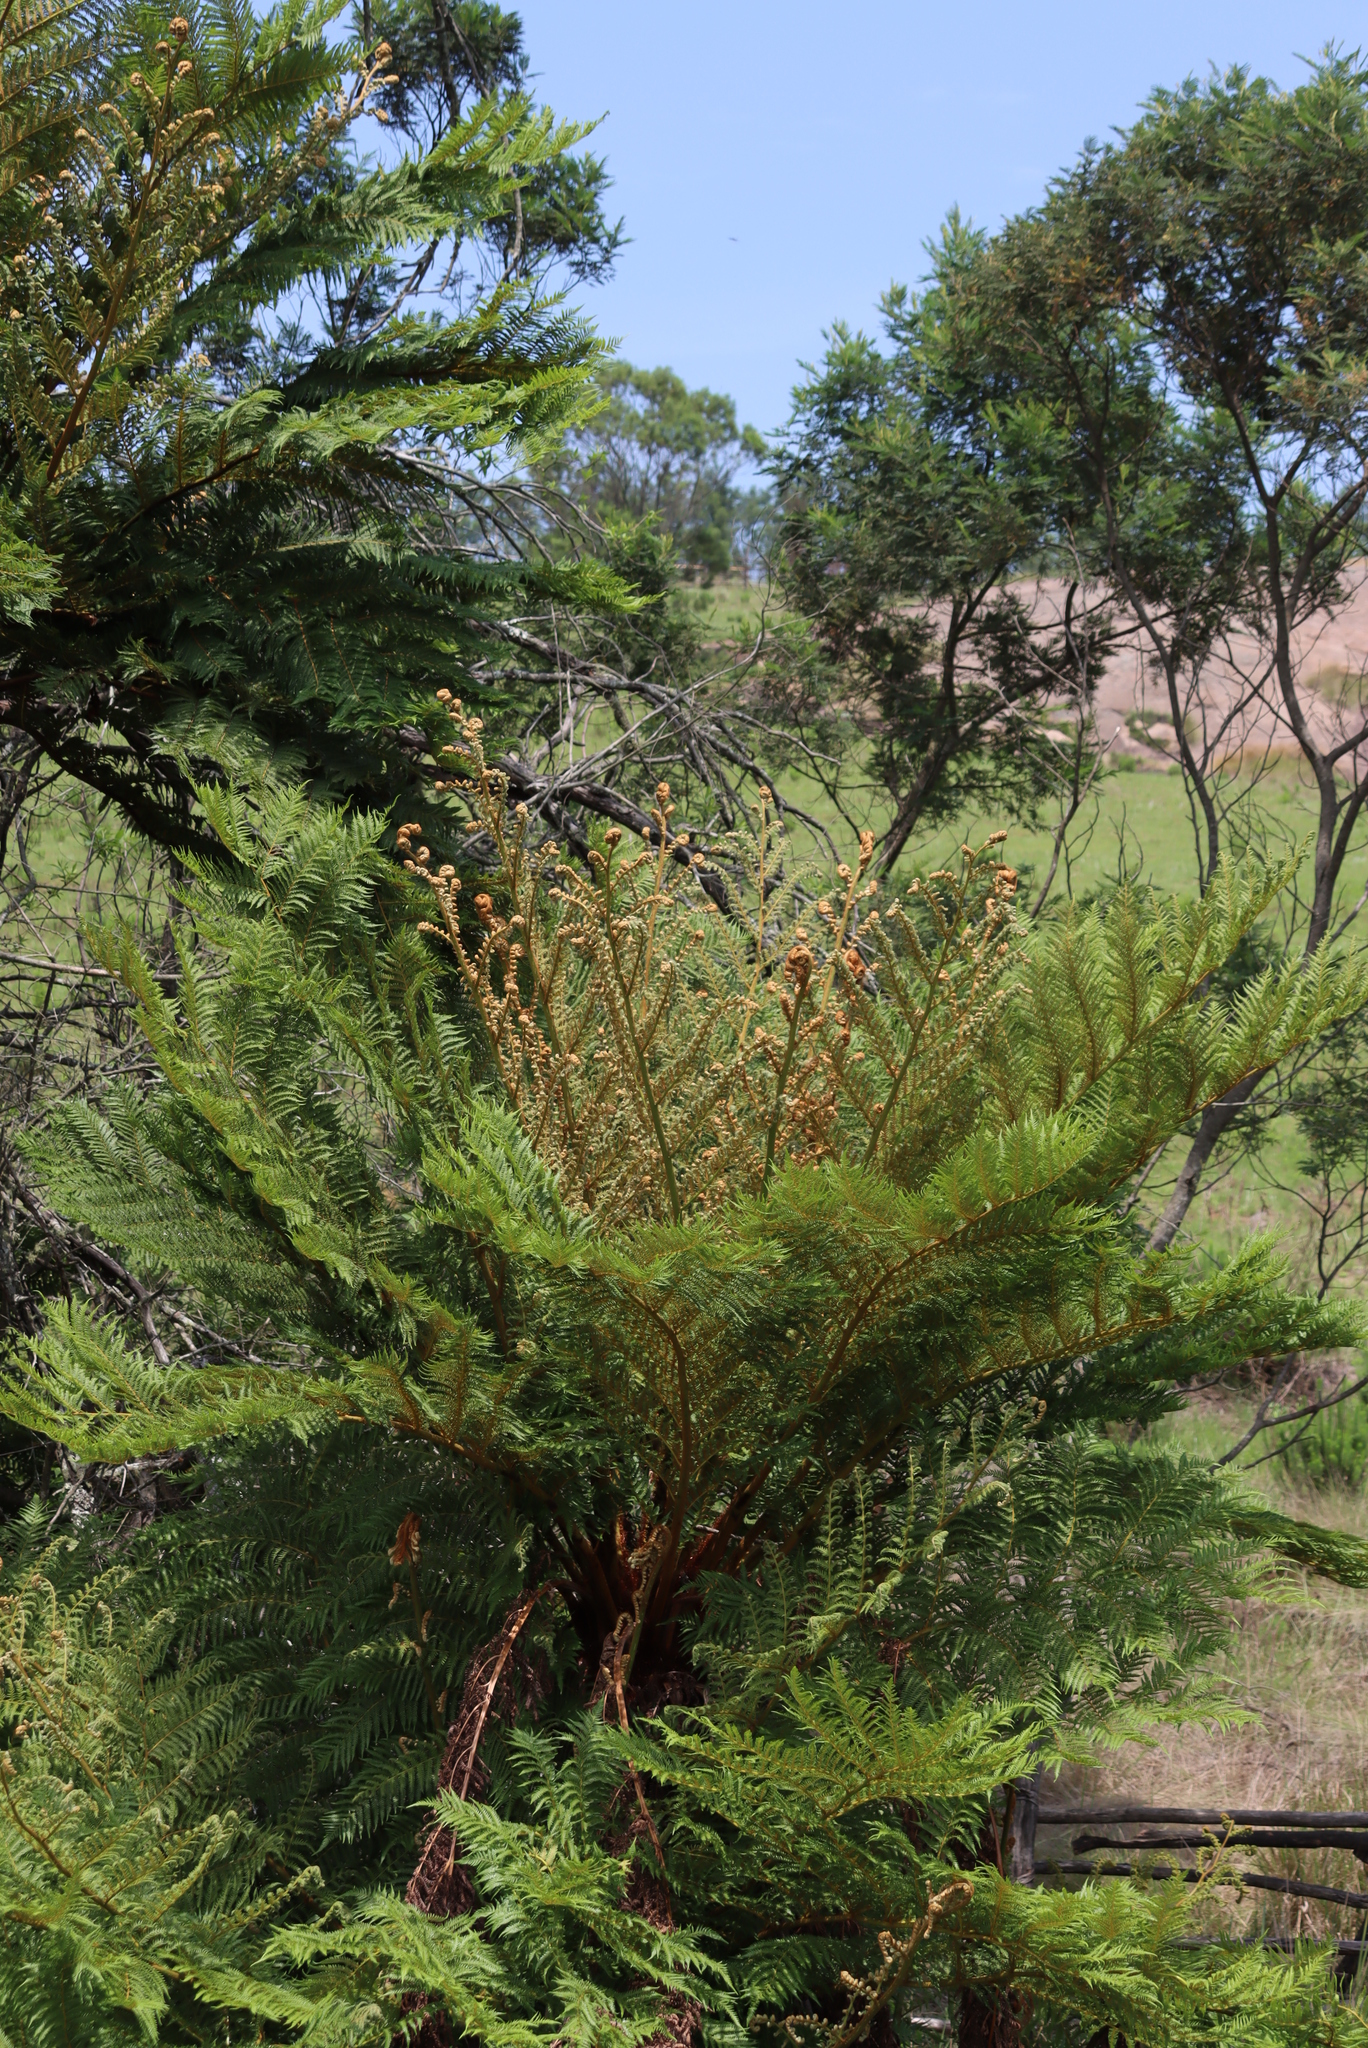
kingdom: Plantae
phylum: Tracheophyta
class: Polypodiopsida
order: Cyatheales
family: Cyatheaceae
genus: Alsophila
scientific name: Alsophila dregei
